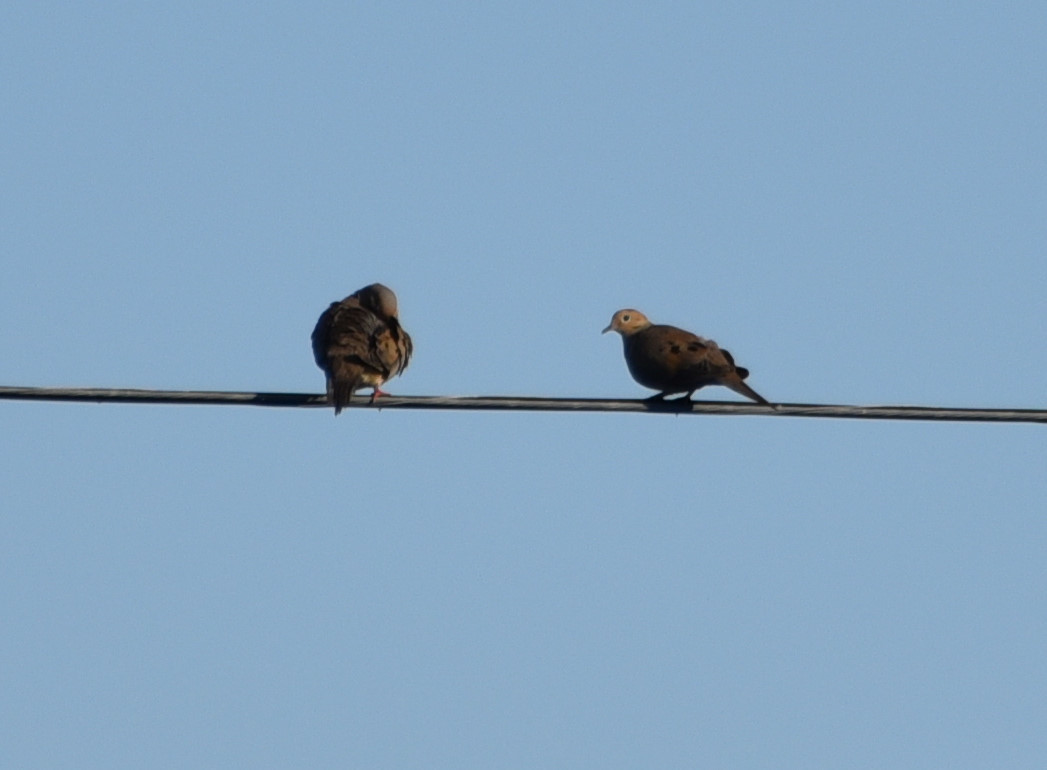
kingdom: Animalia
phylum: Chordata
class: Aves
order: Columbiformes
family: Columbidae
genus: Zenaida
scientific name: Zenaida macroura
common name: Mourning dove
